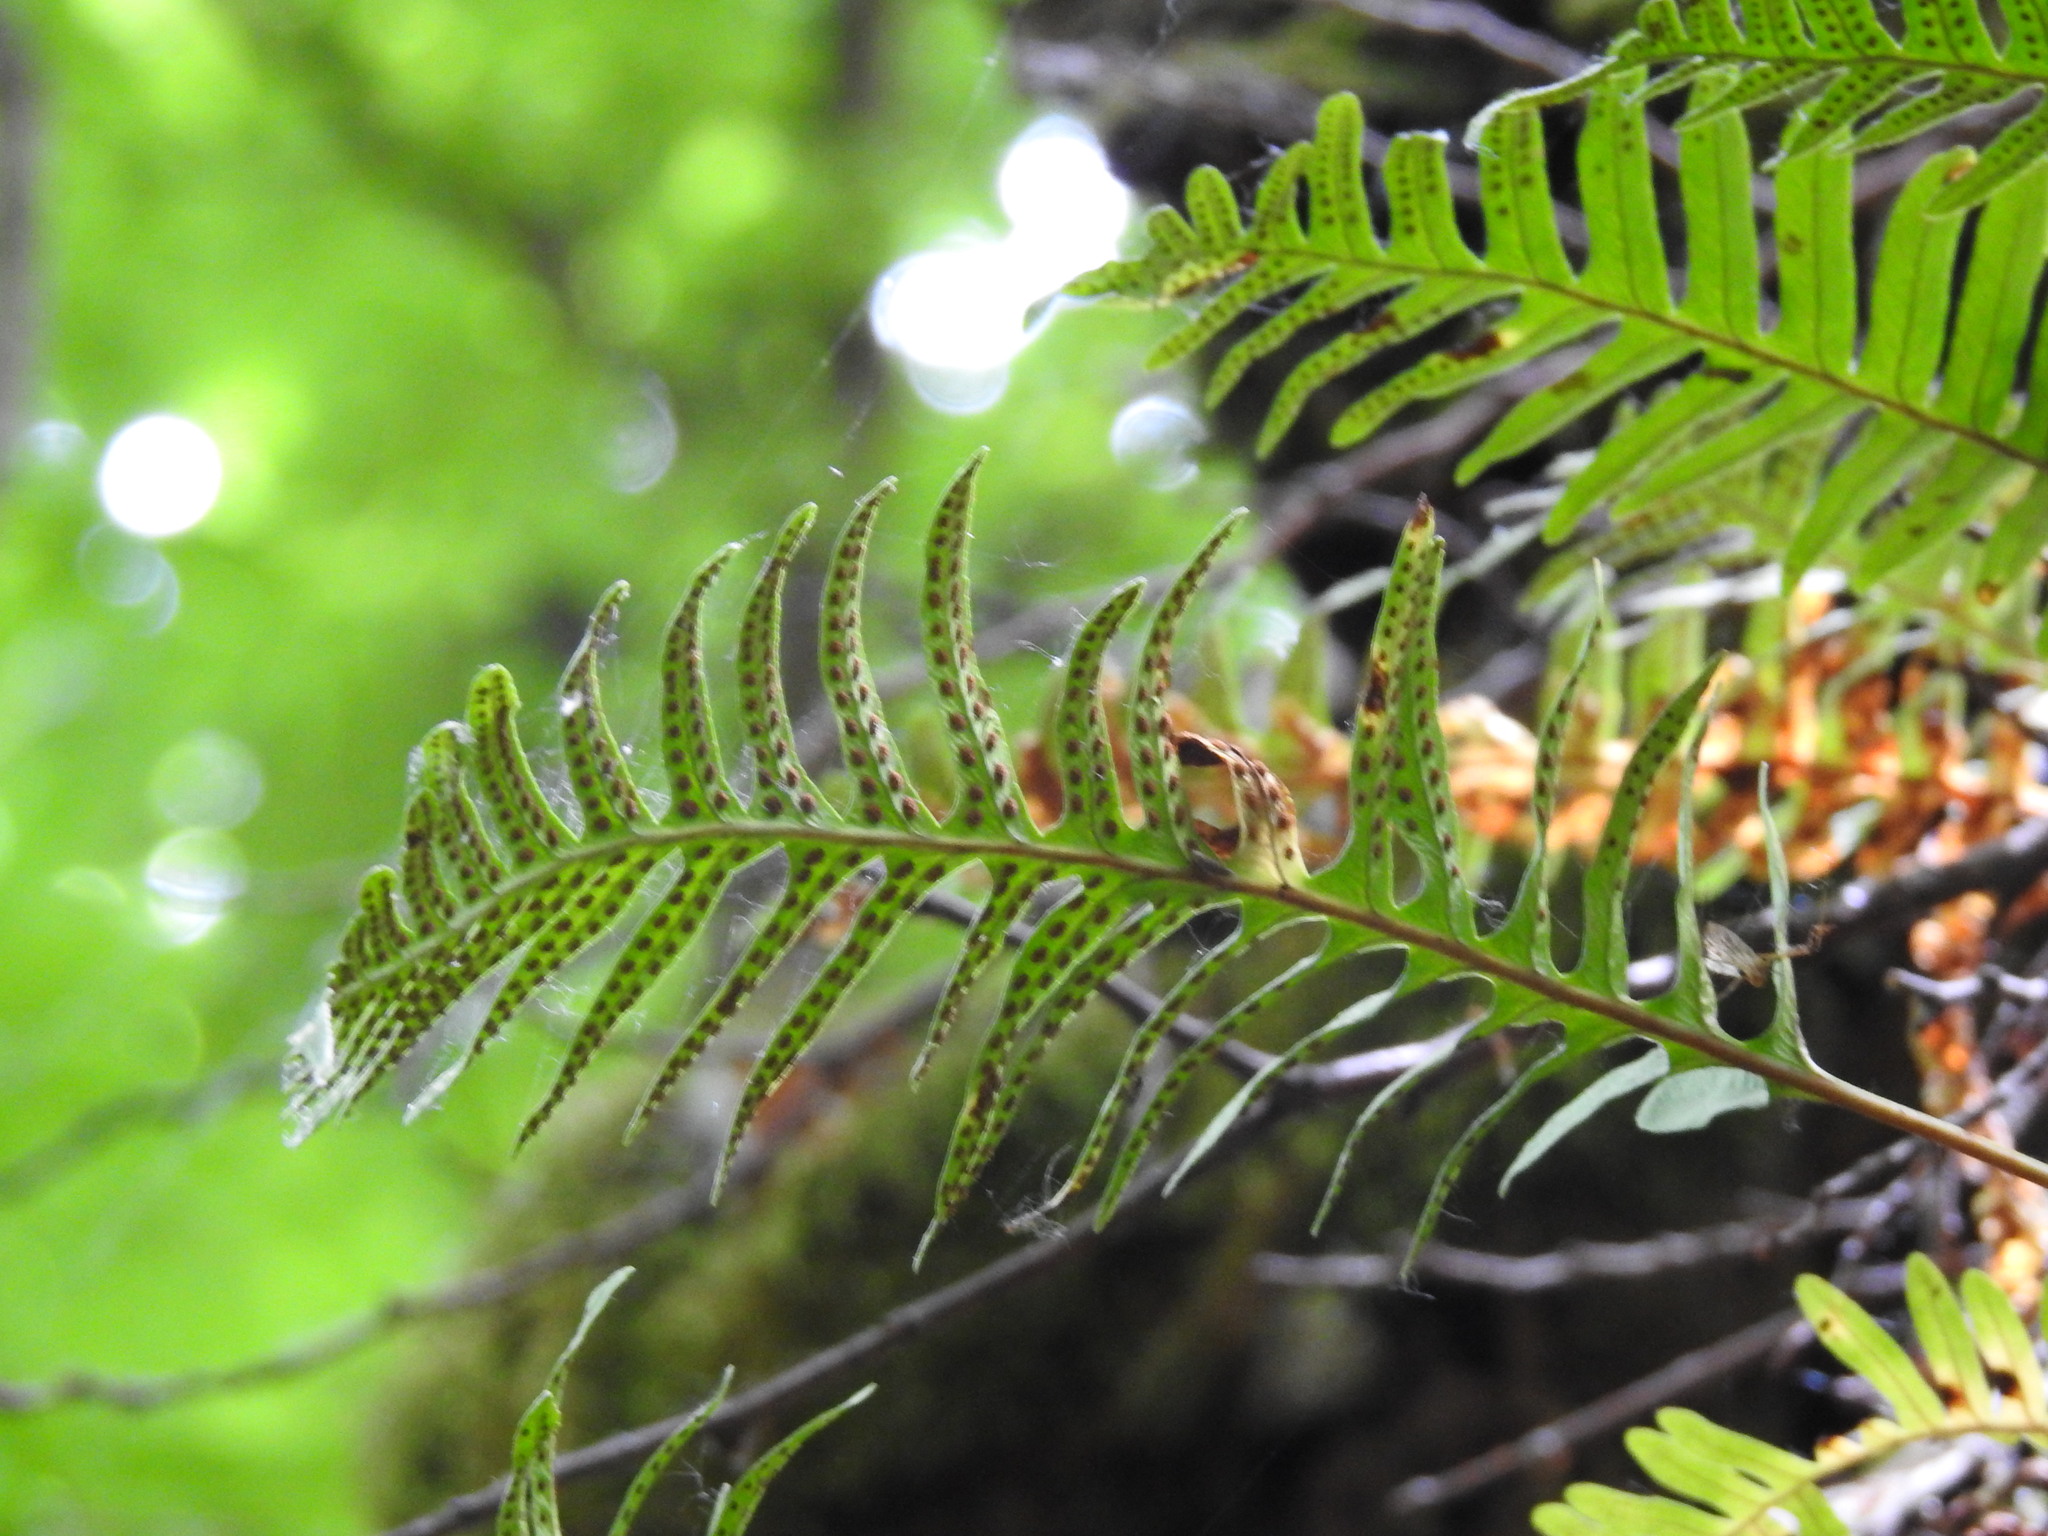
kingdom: Plantae
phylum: Tracheophyta
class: Polypodiopsida
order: Polypodiales
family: Polypodiaceae
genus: Polypodium
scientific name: Polypodium vulgare
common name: Common polypody
